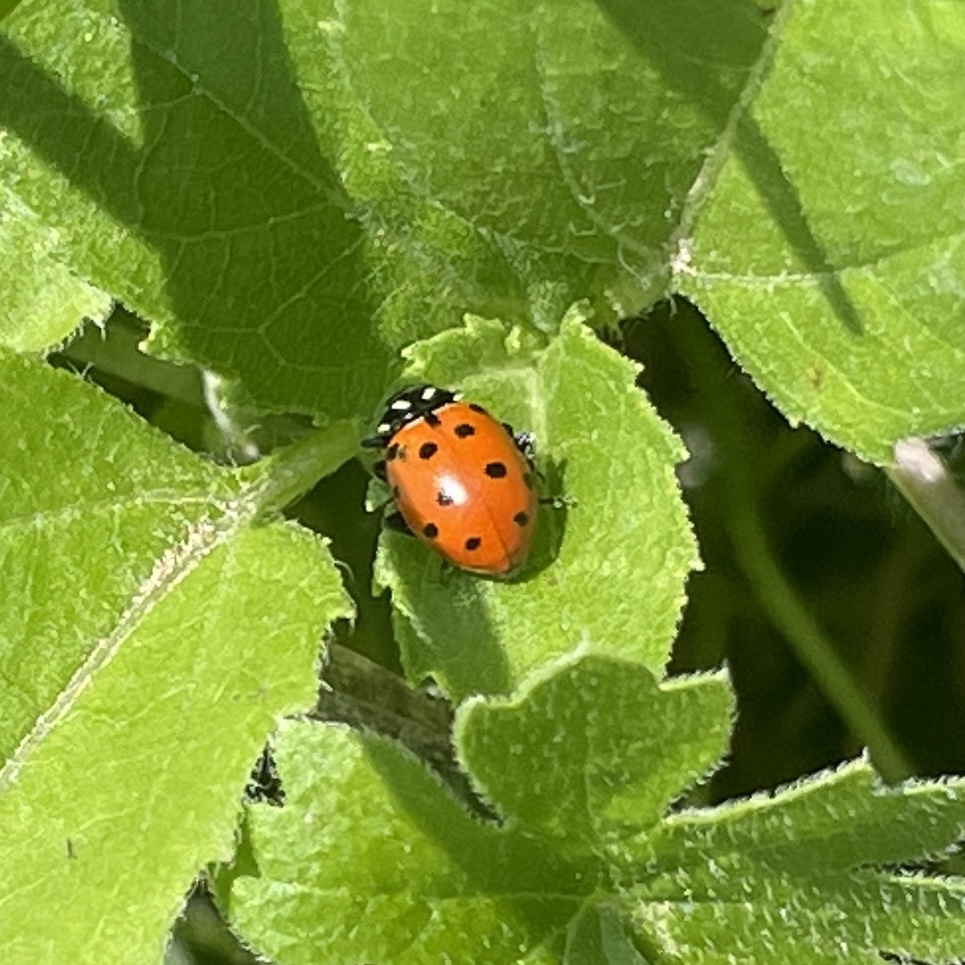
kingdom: Animalia
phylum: Arthropoda
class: Insecta
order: Coleoptera
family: Coccinellidae
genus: Hippodamia
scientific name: Hippodamia convergens
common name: Convergent lady beetle
